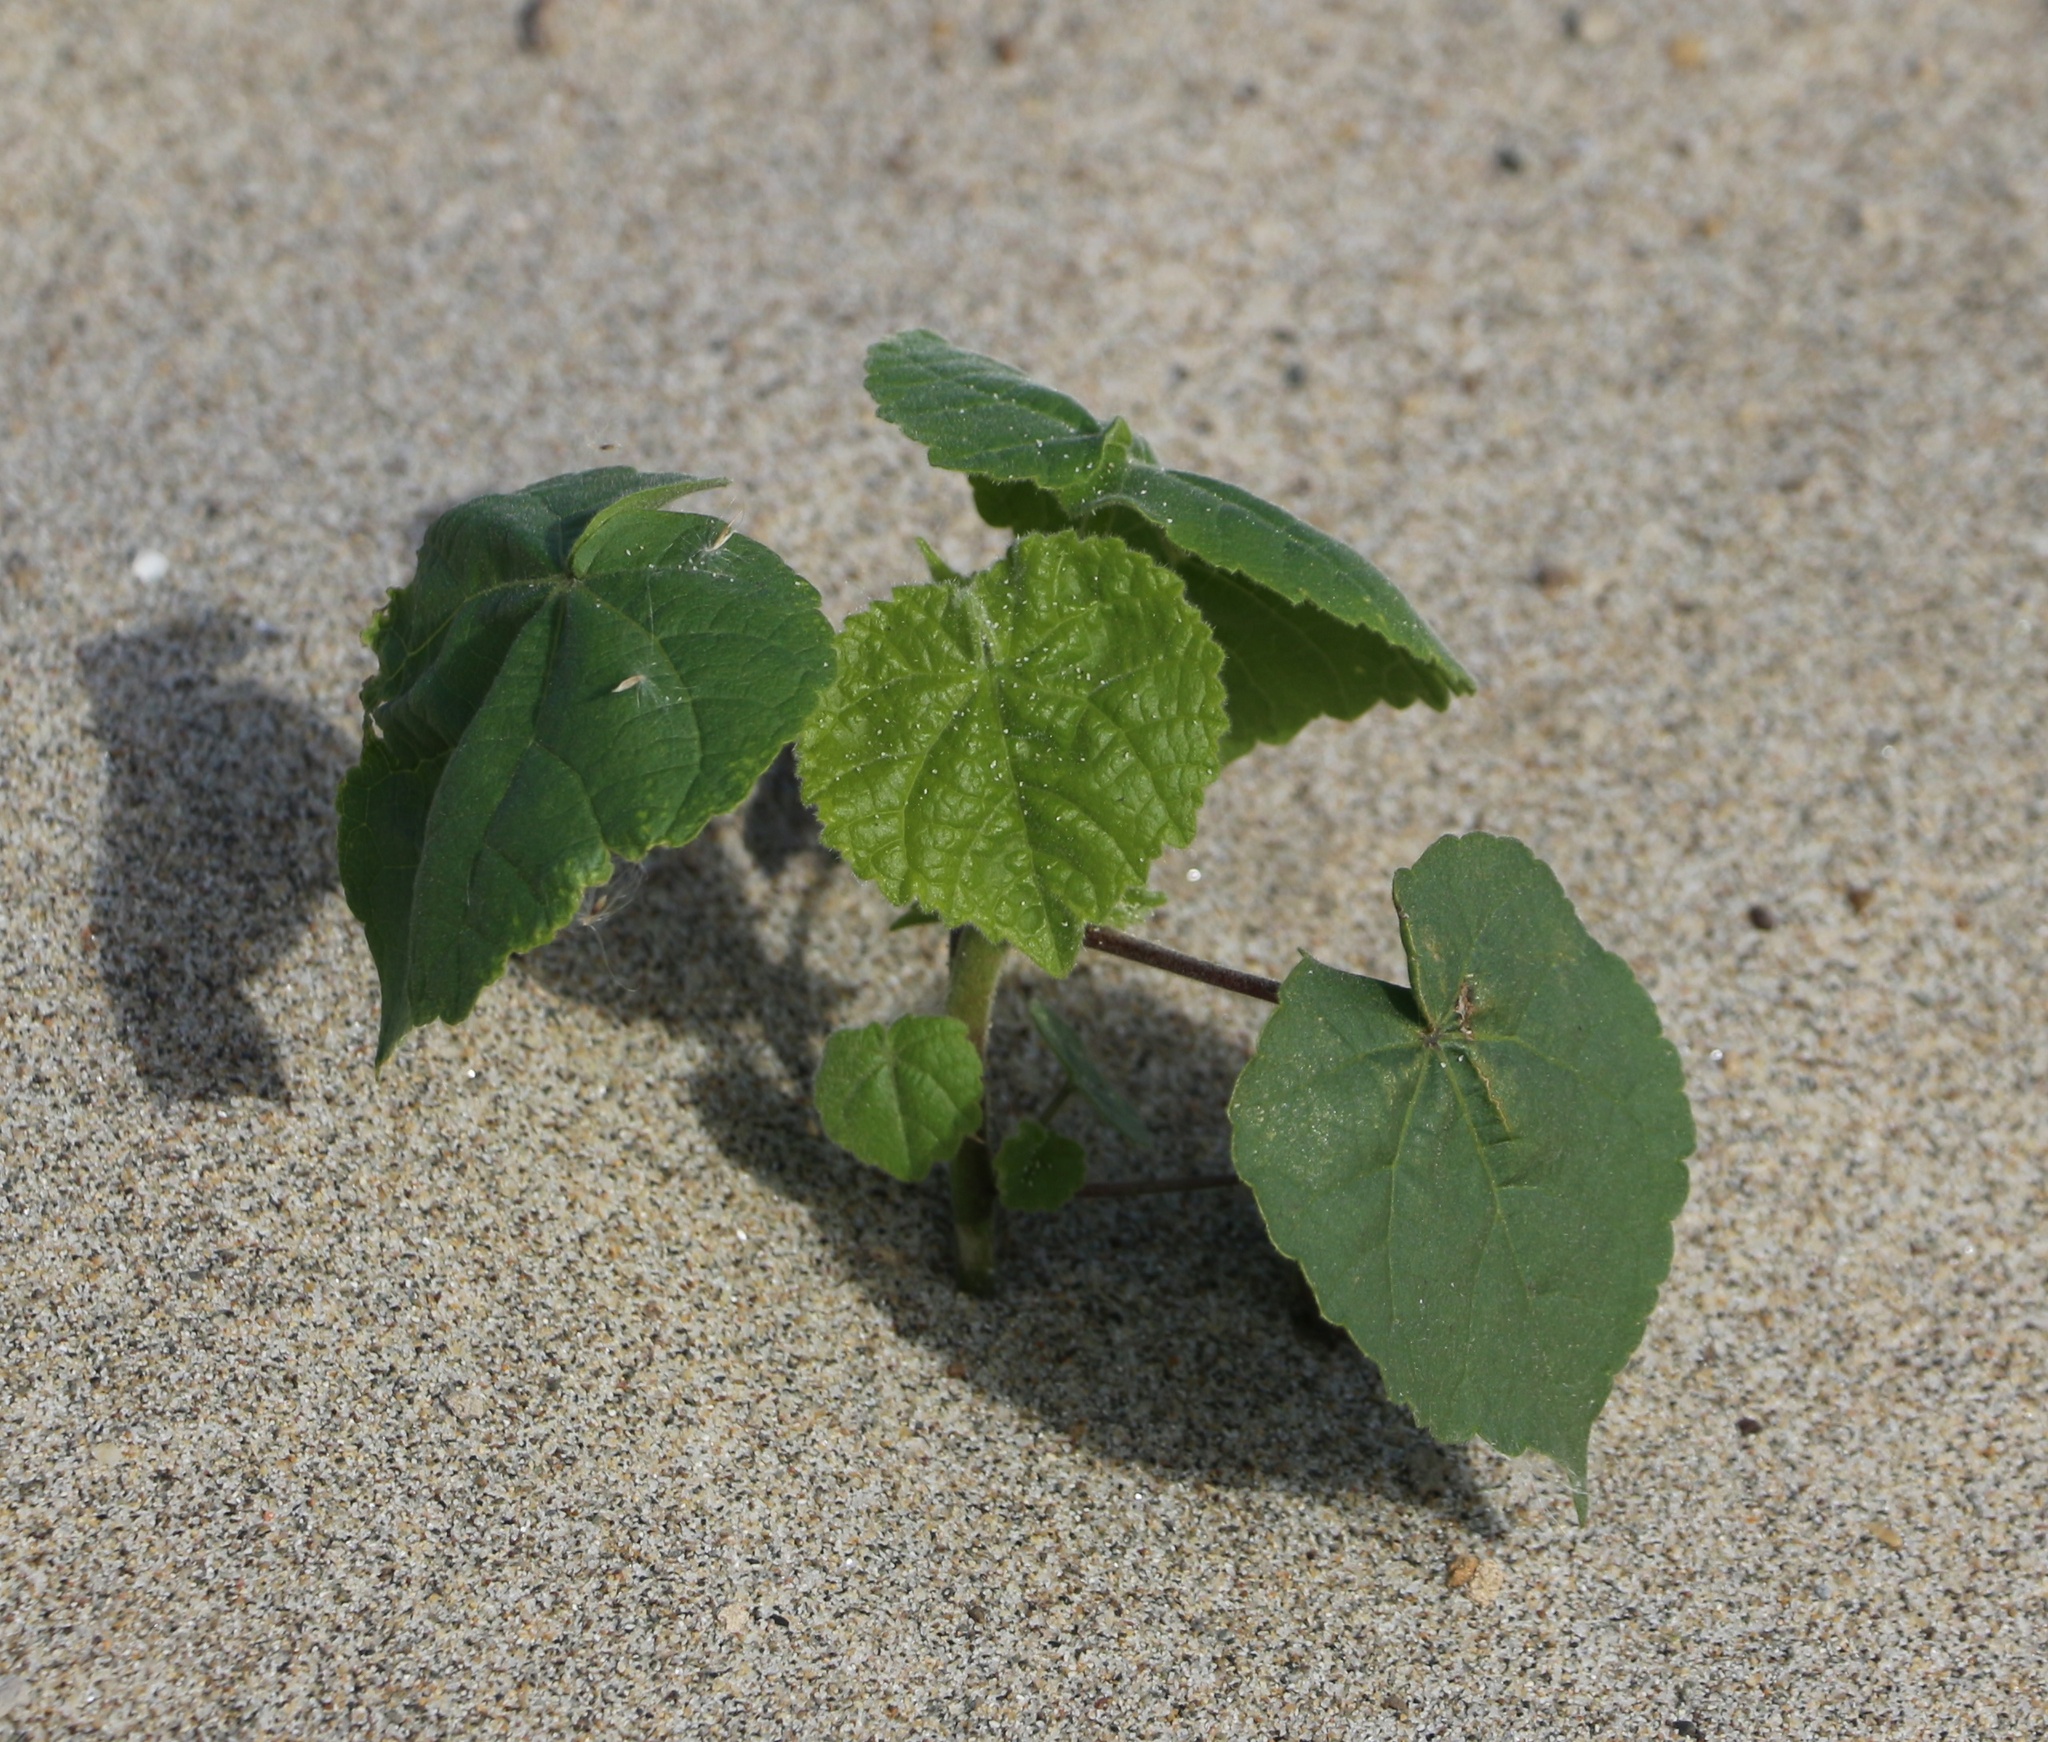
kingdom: Plantae
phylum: Tracheophyta
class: Magnoliopsida
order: Malvales
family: Malvaceae
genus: Abutilon
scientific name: Abutilon theophrasti
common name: Velvetleaf
